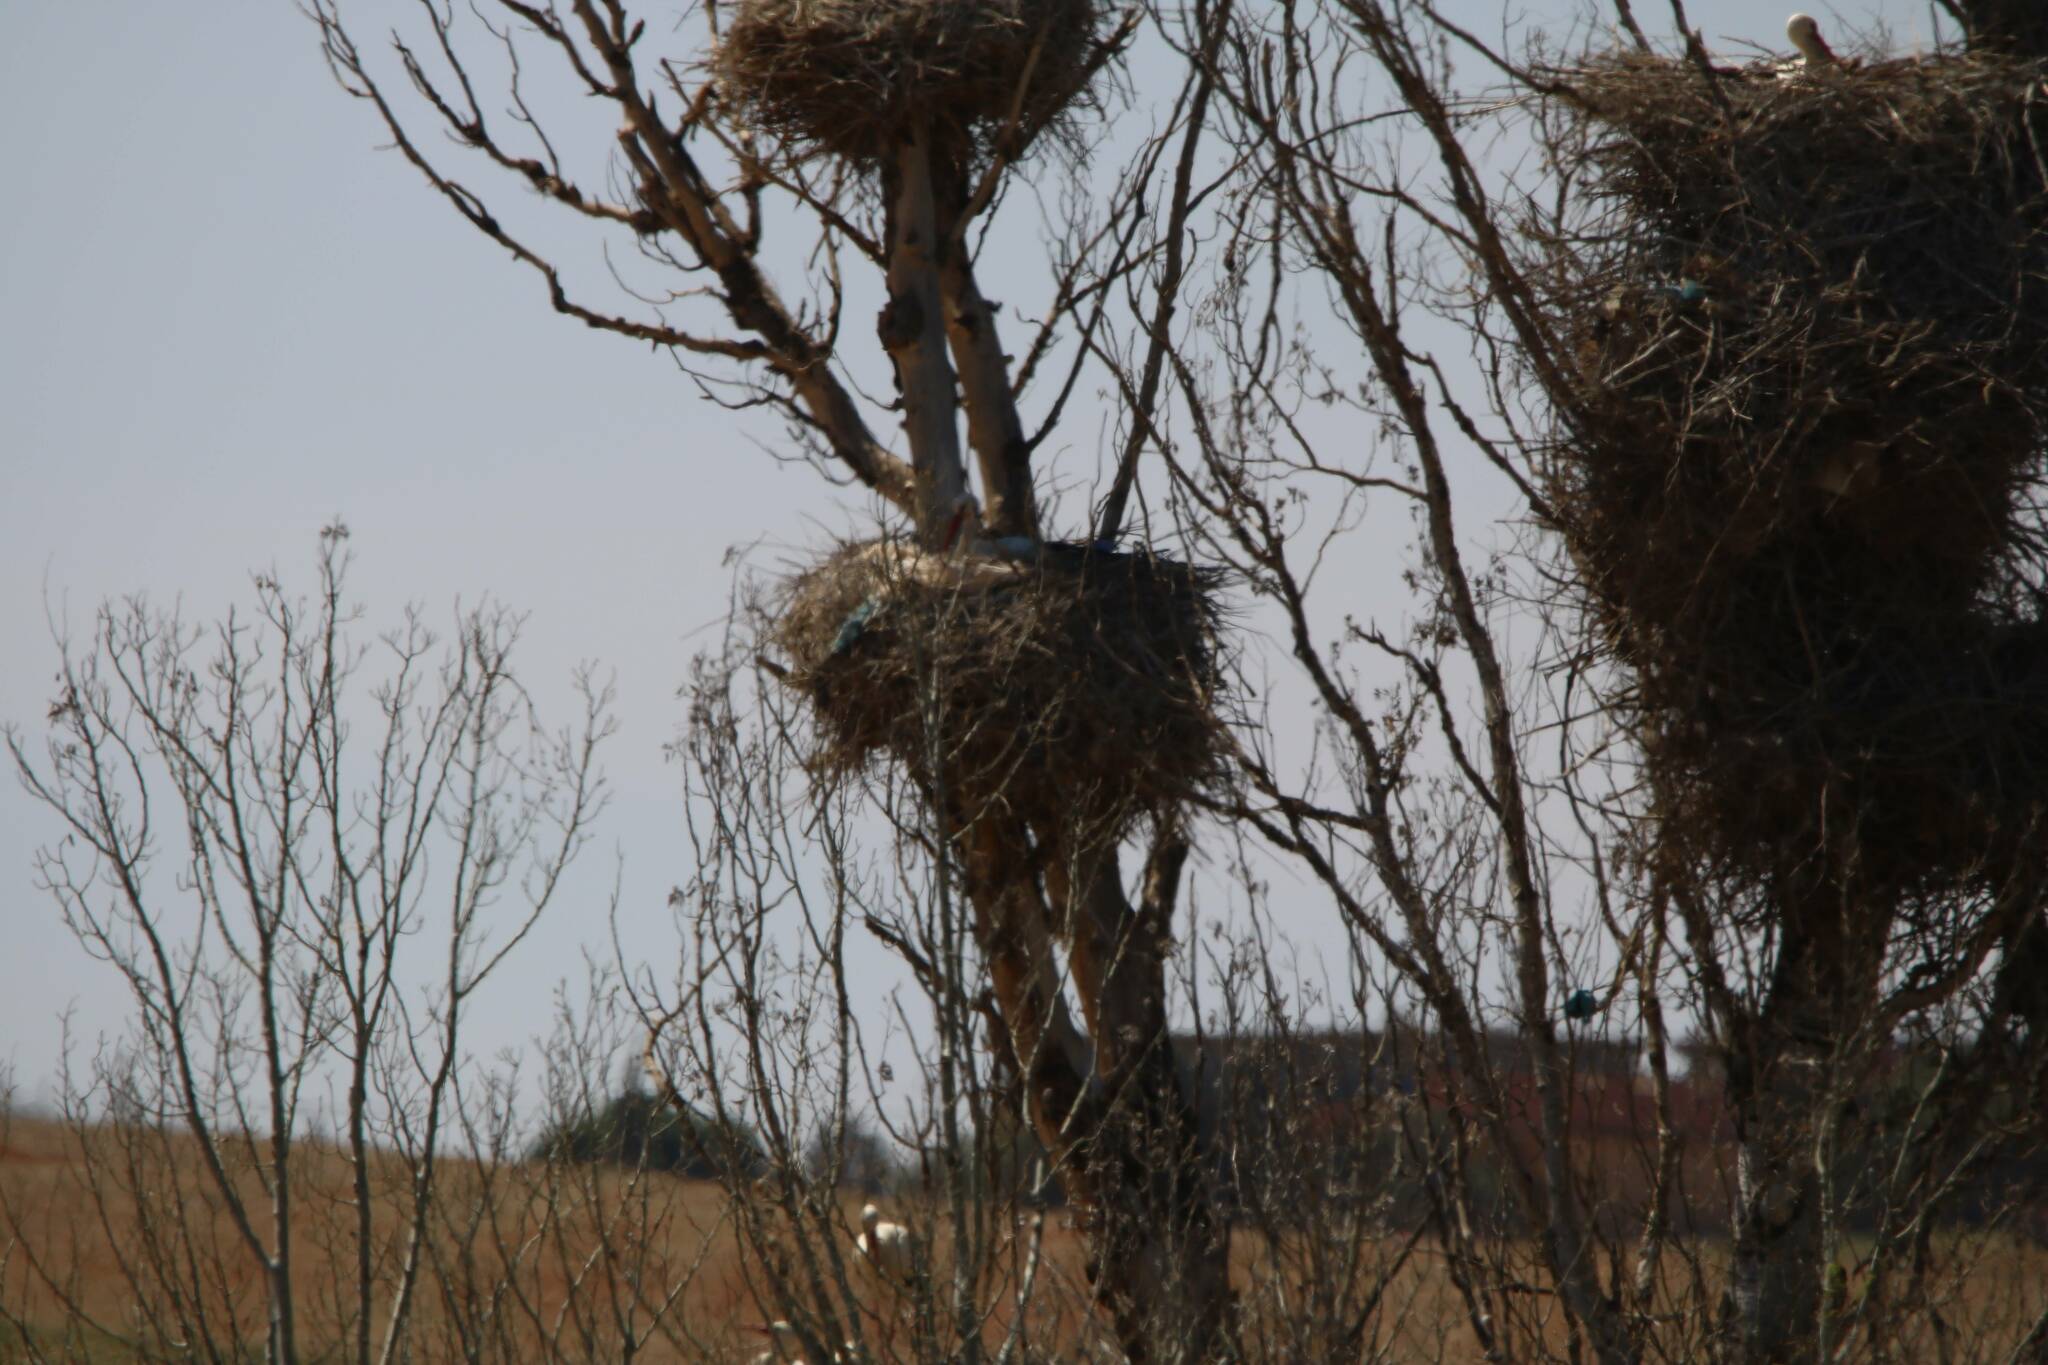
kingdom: Animalia
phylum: Chordata
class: Aves
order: Ciconiiformes
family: Ciconiidae
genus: Ciconia
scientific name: Ciconia ciconia
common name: White stork
